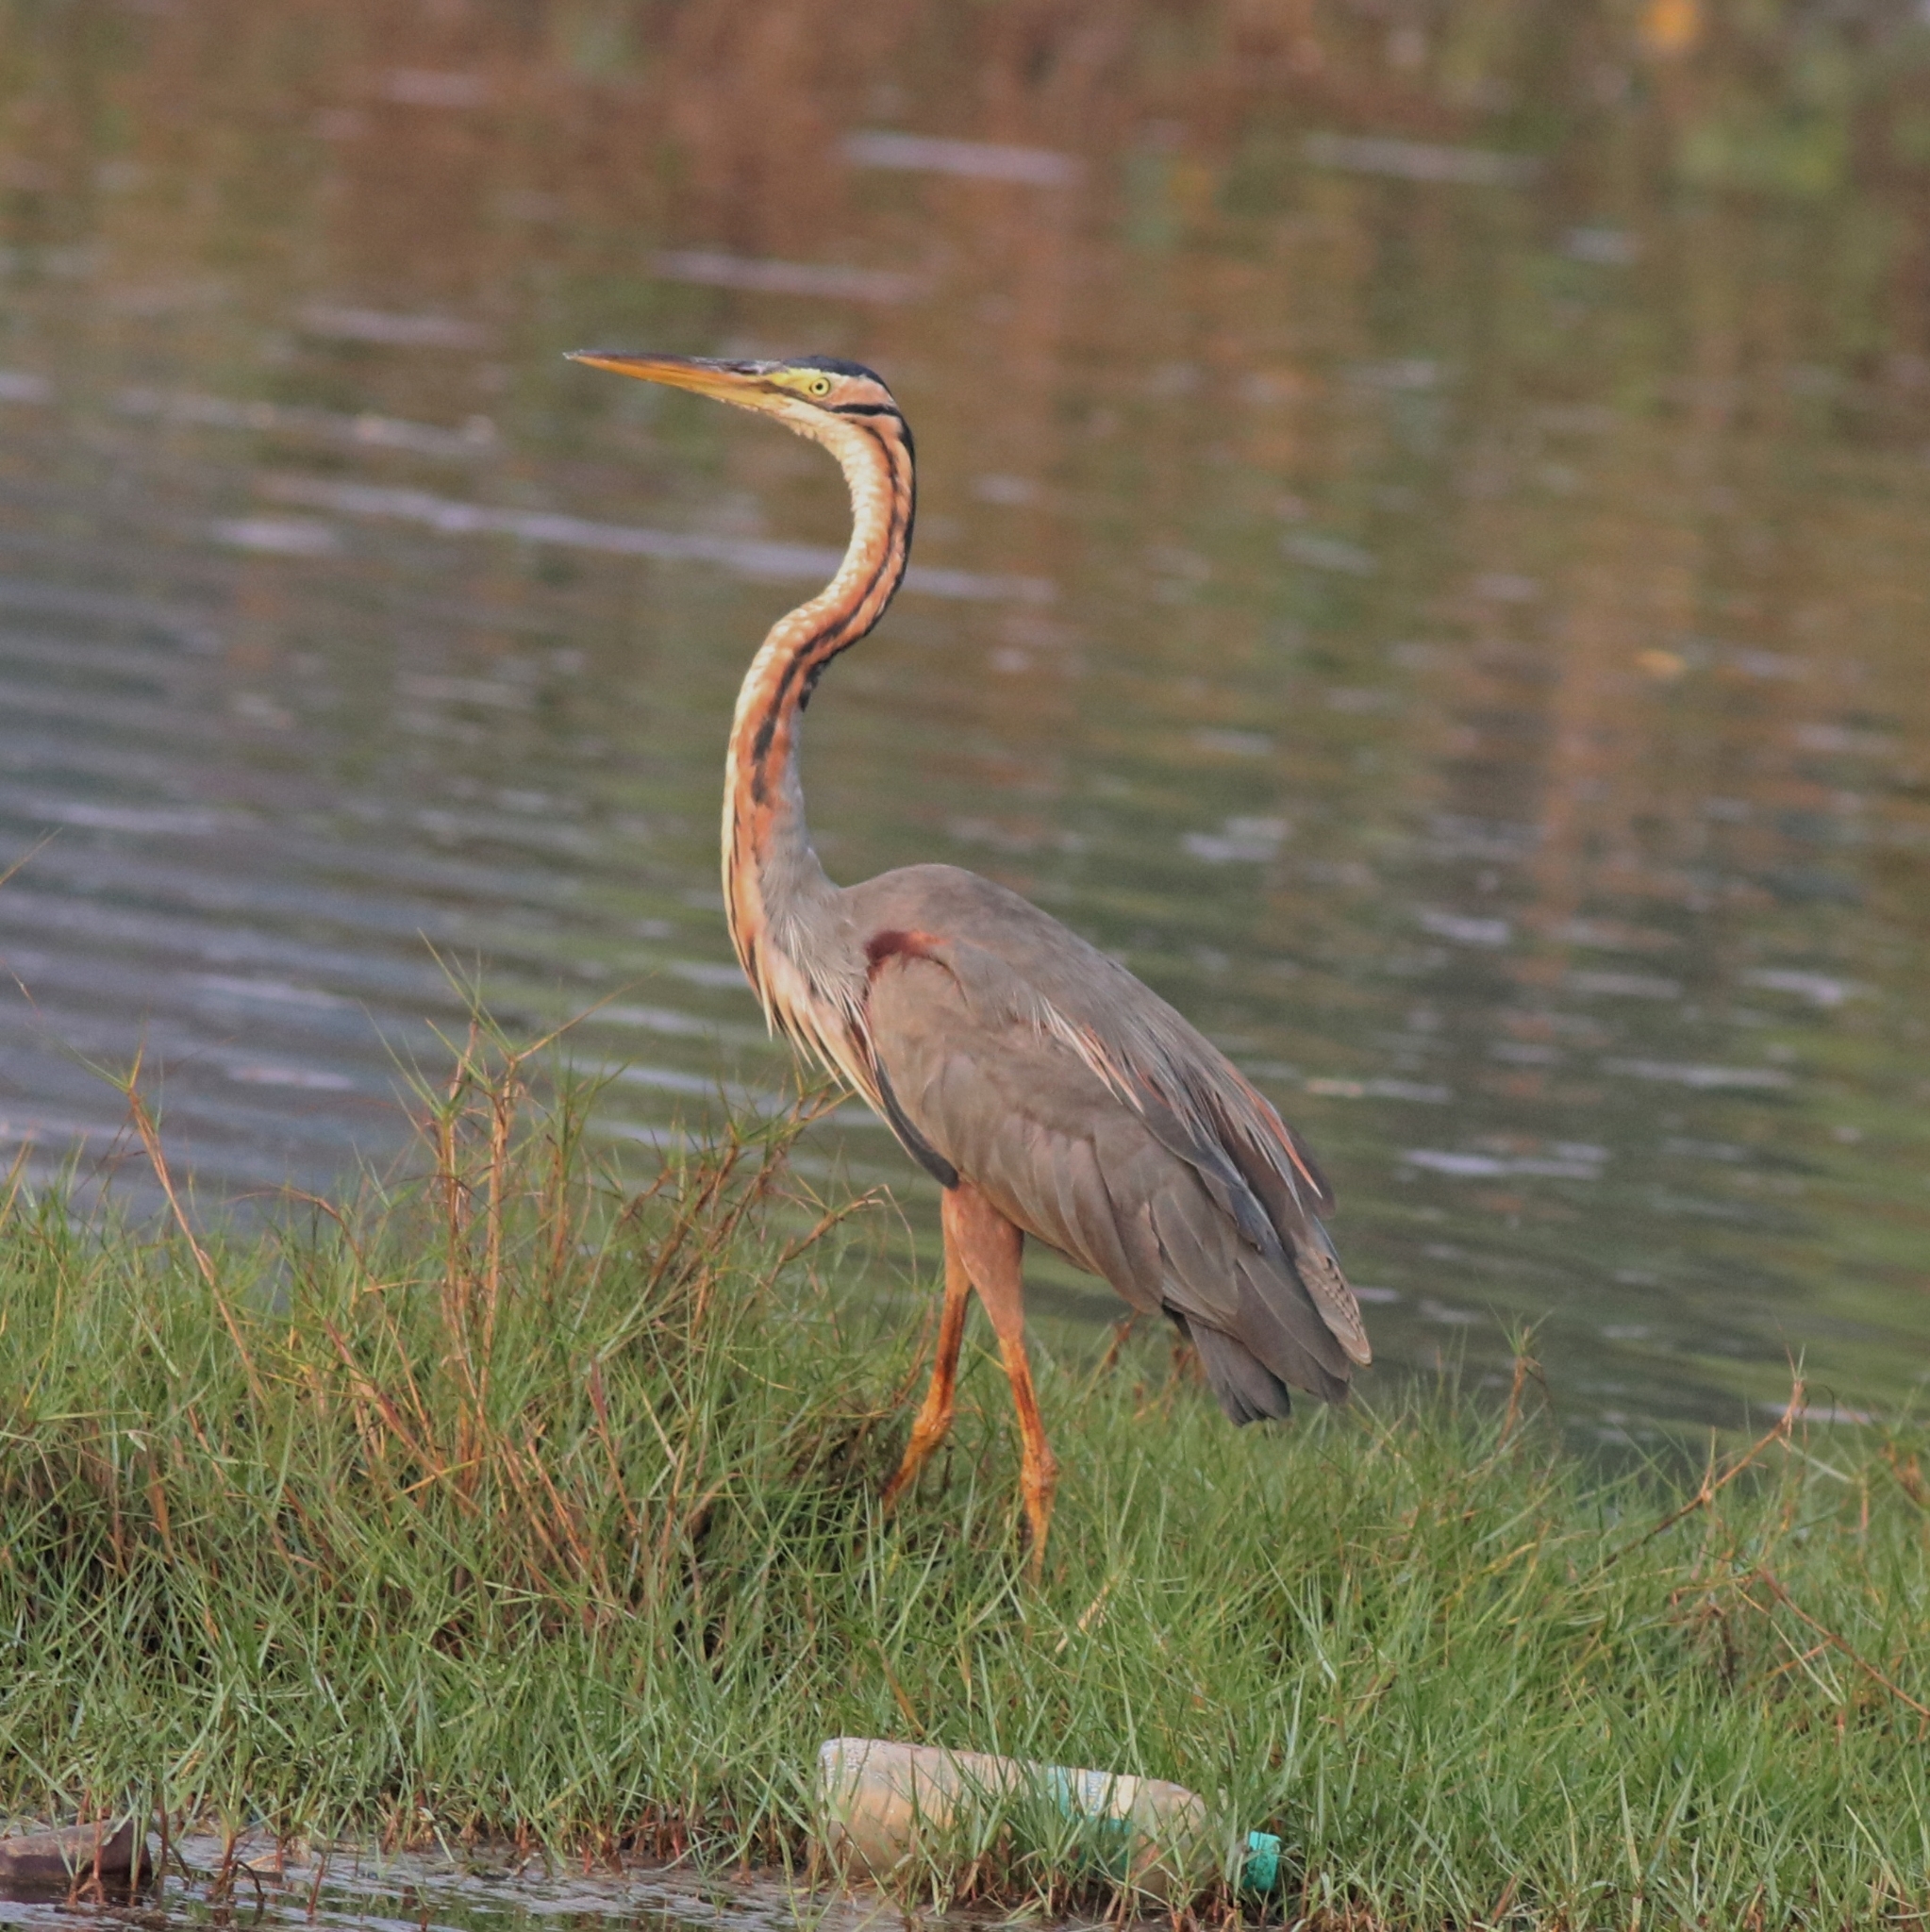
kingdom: Animalia
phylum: Chordata
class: Aves
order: Pelecaniformes
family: Ardeidae
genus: Ardea
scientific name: Ardea purpurea
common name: Purple heron
